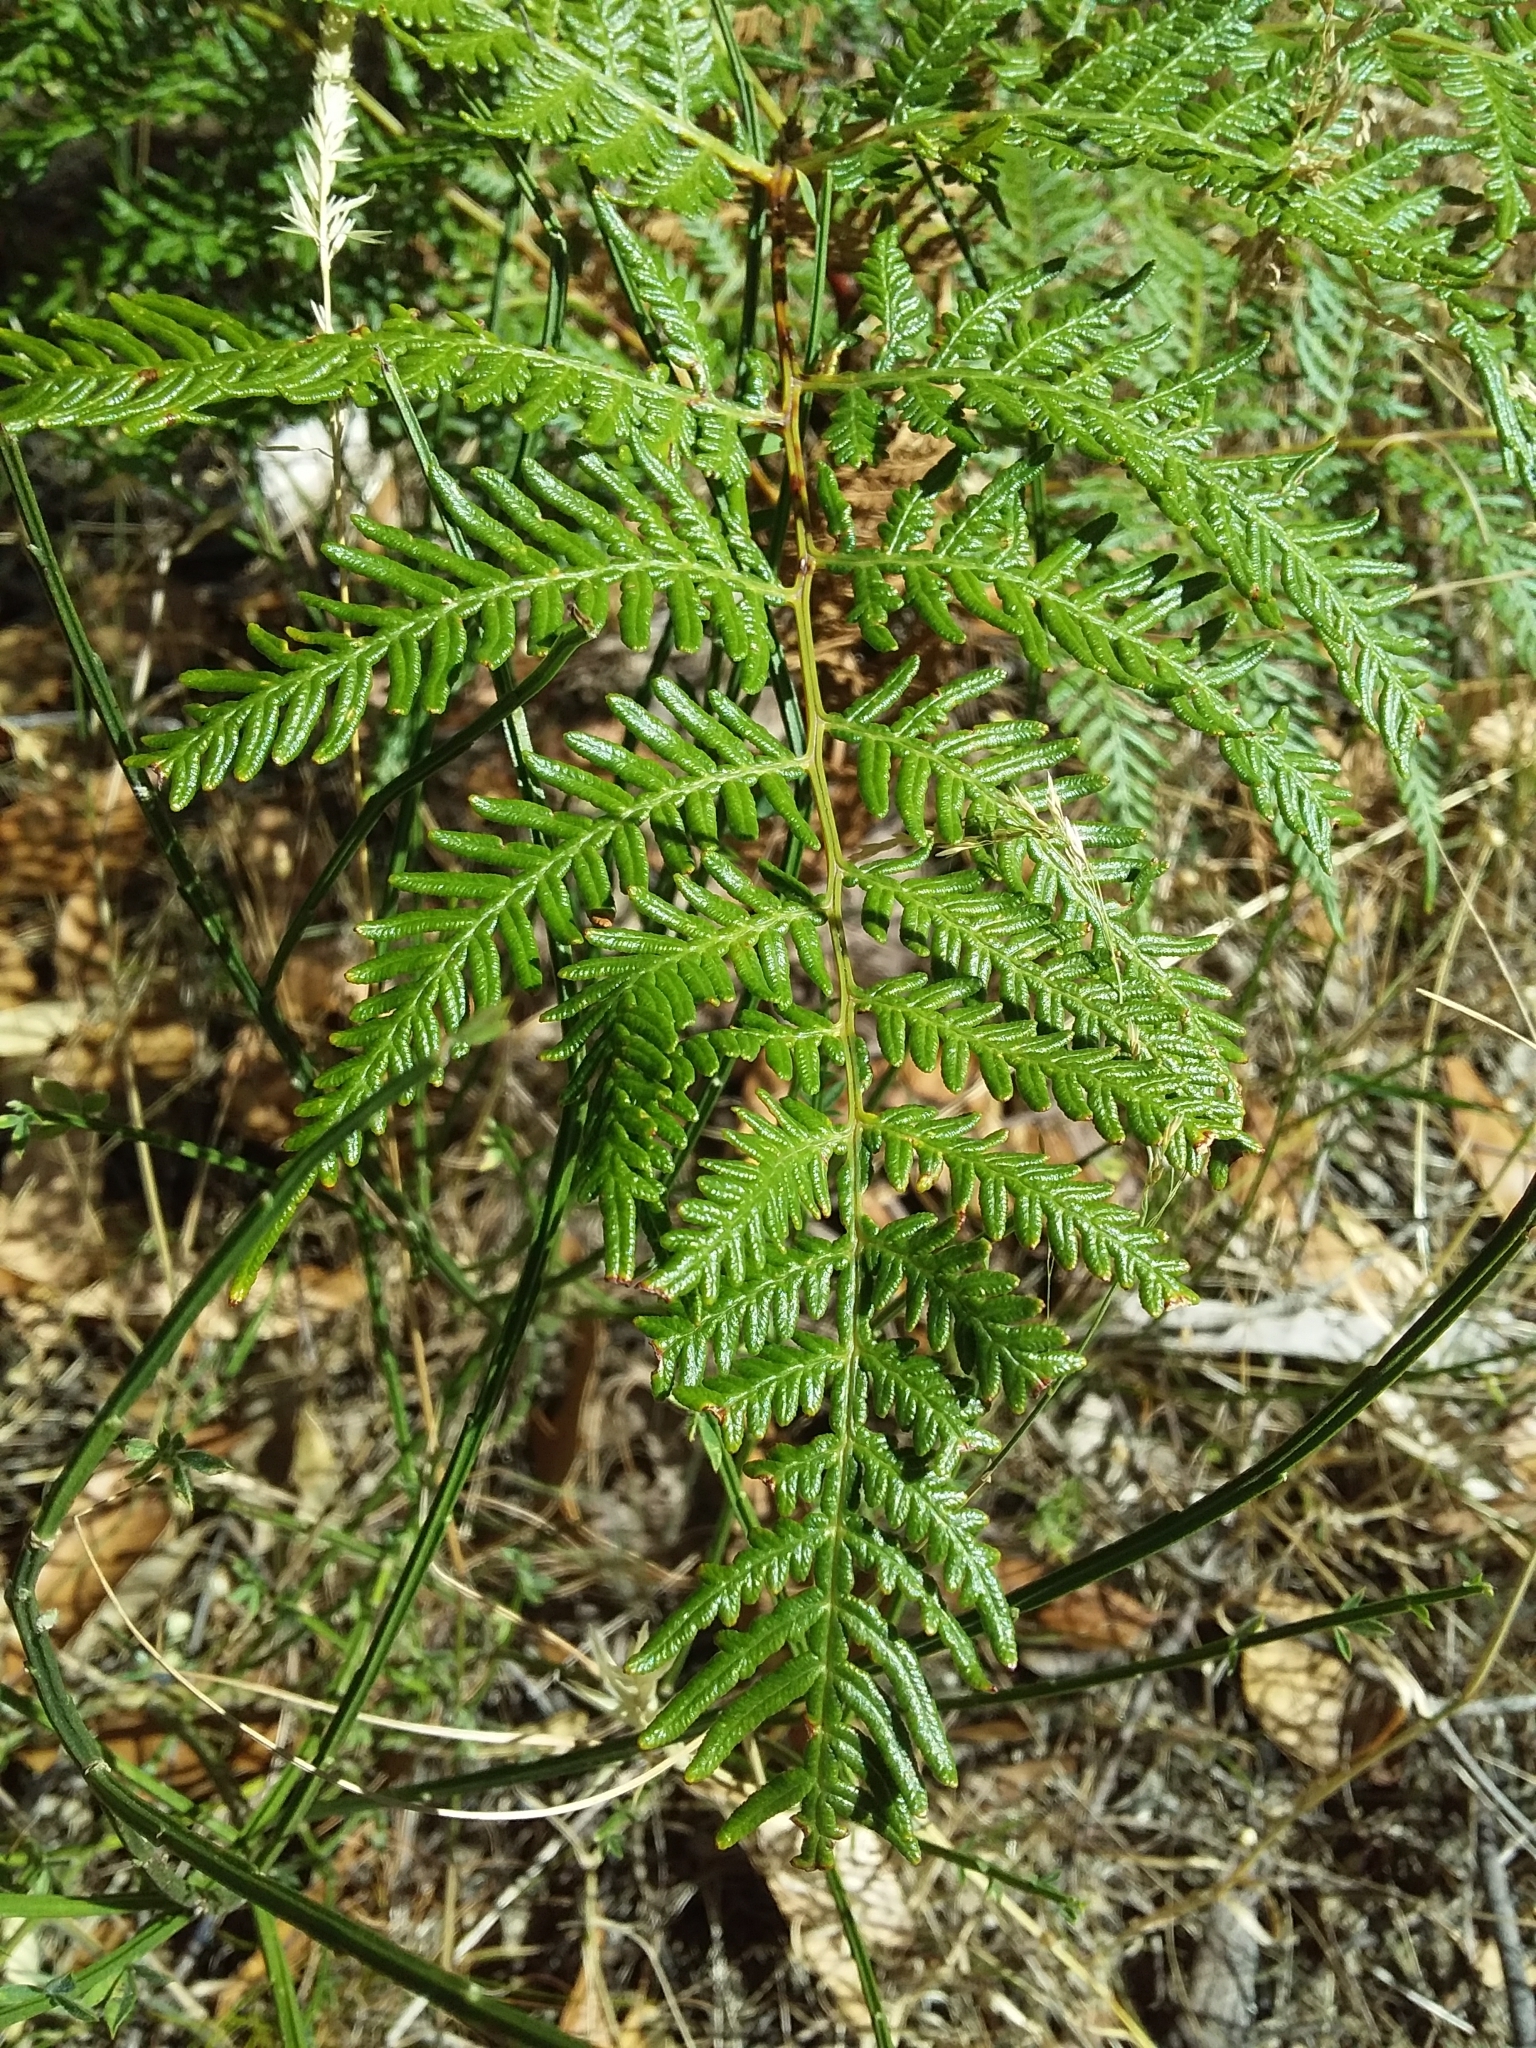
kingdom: Plantae
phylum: Tracheophyta
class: Polypodiopsida
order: Polypodiales
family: Dennstaedtiaceae
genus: Pteridium
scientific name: Pteridium esculentum
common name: Bracken fern
